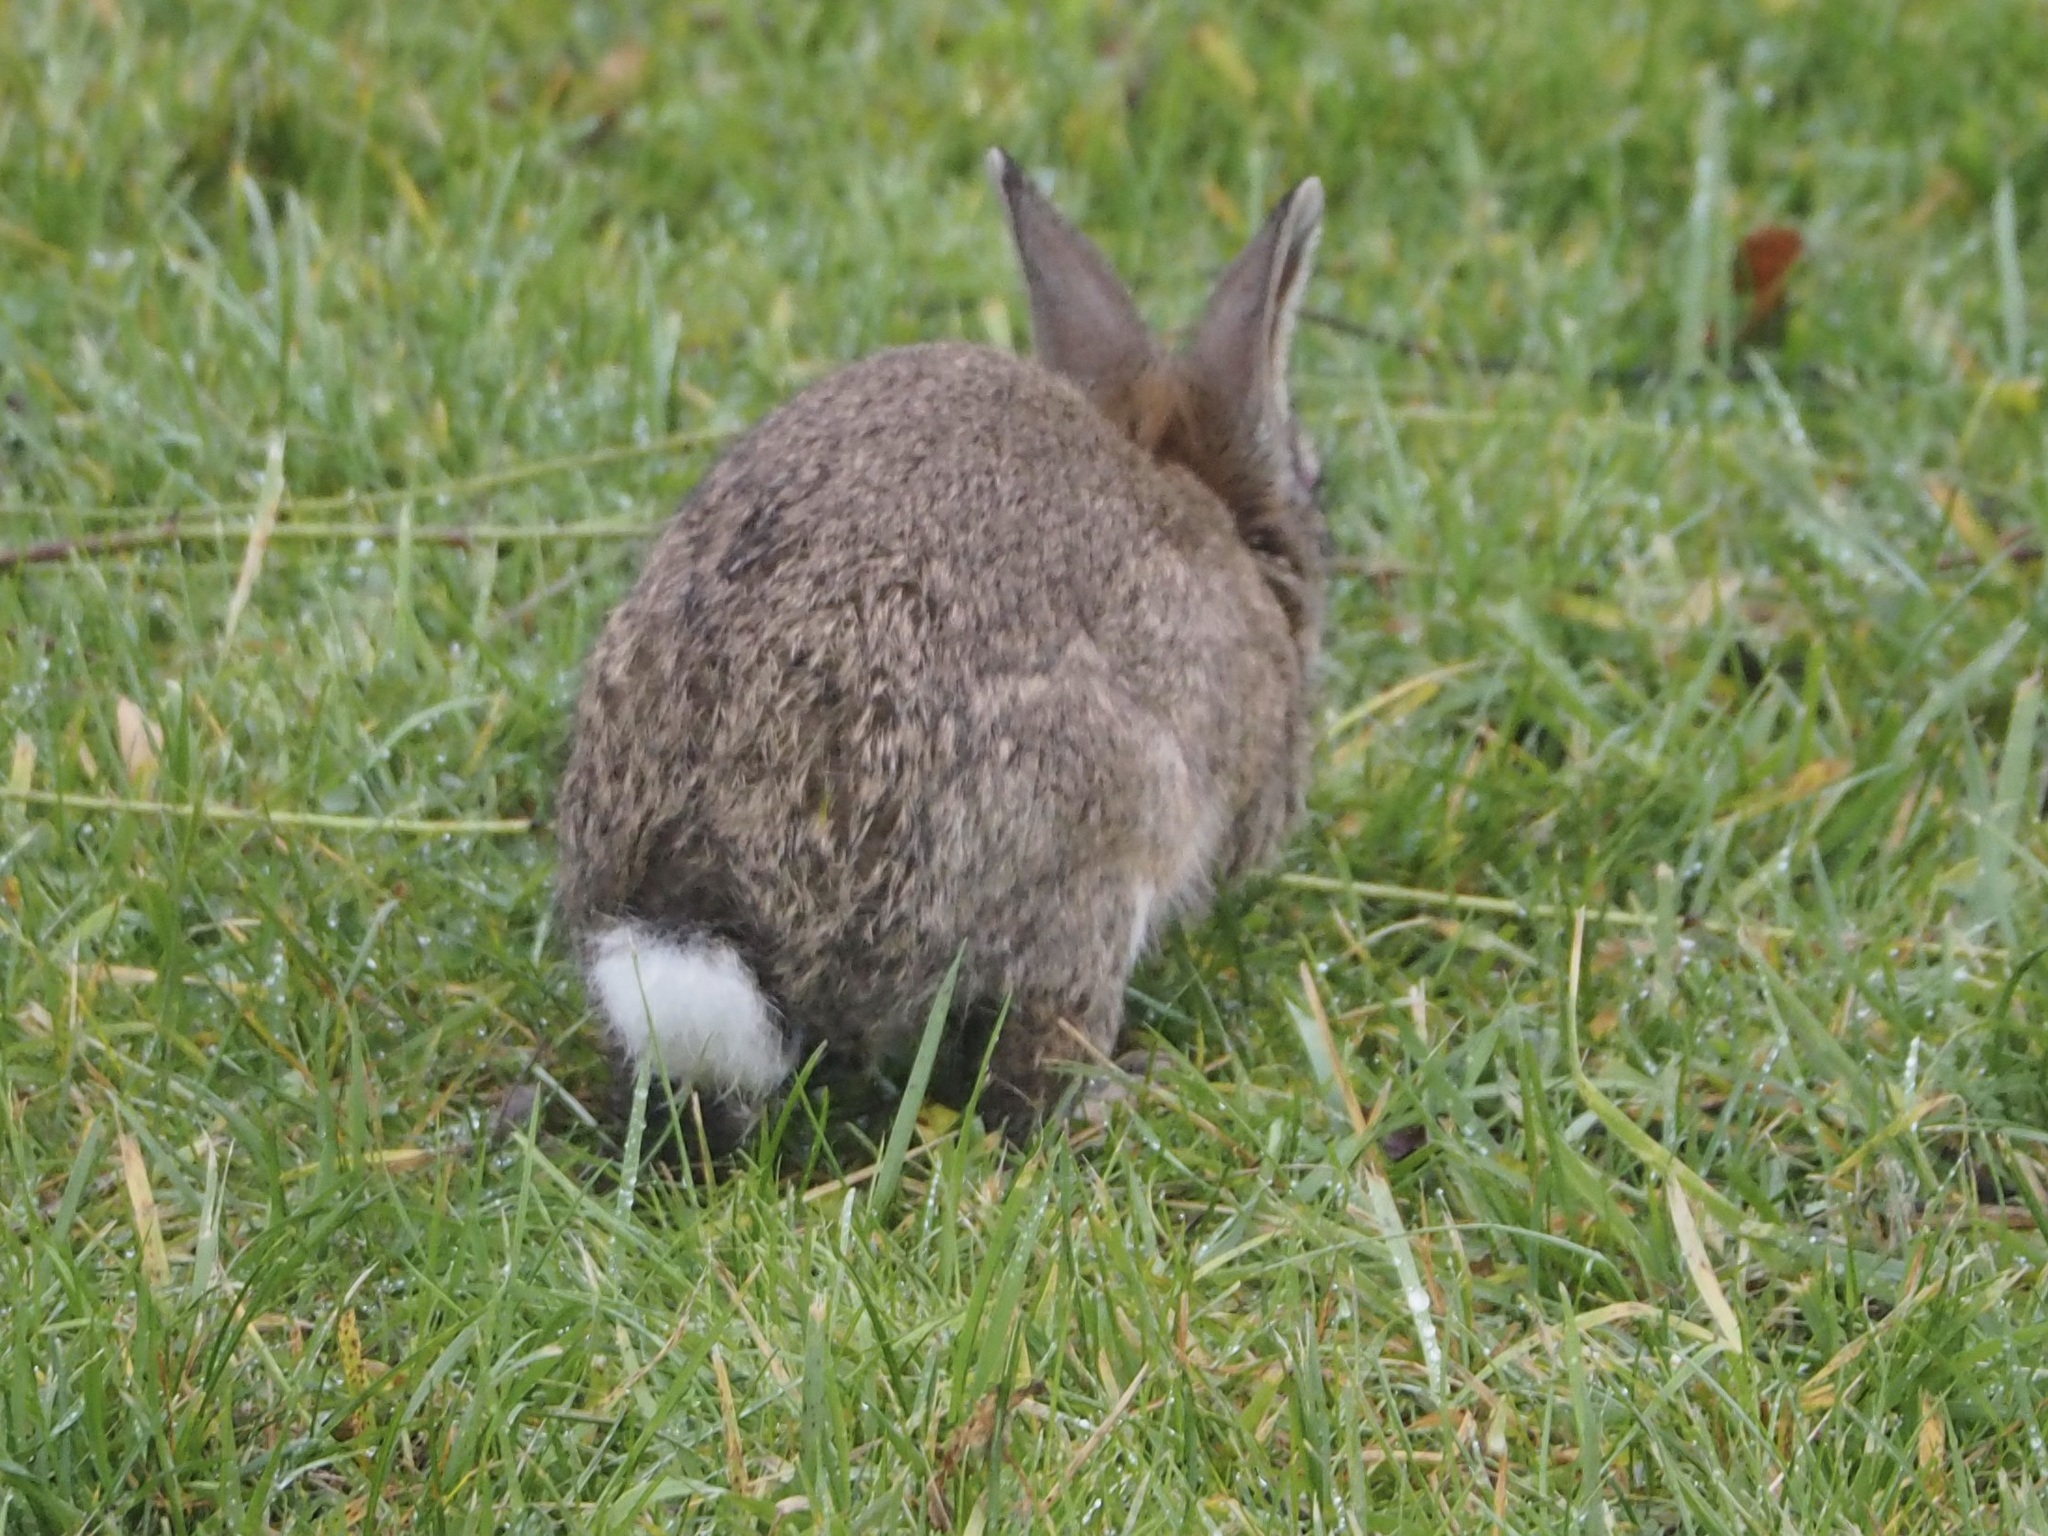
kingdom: Animalia
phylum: Chordata
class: Mammalia
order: Lagomorpha
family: Leporidae
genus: Oryctolagus
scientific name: Oryctolagus cuniculus
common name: European rabbit
